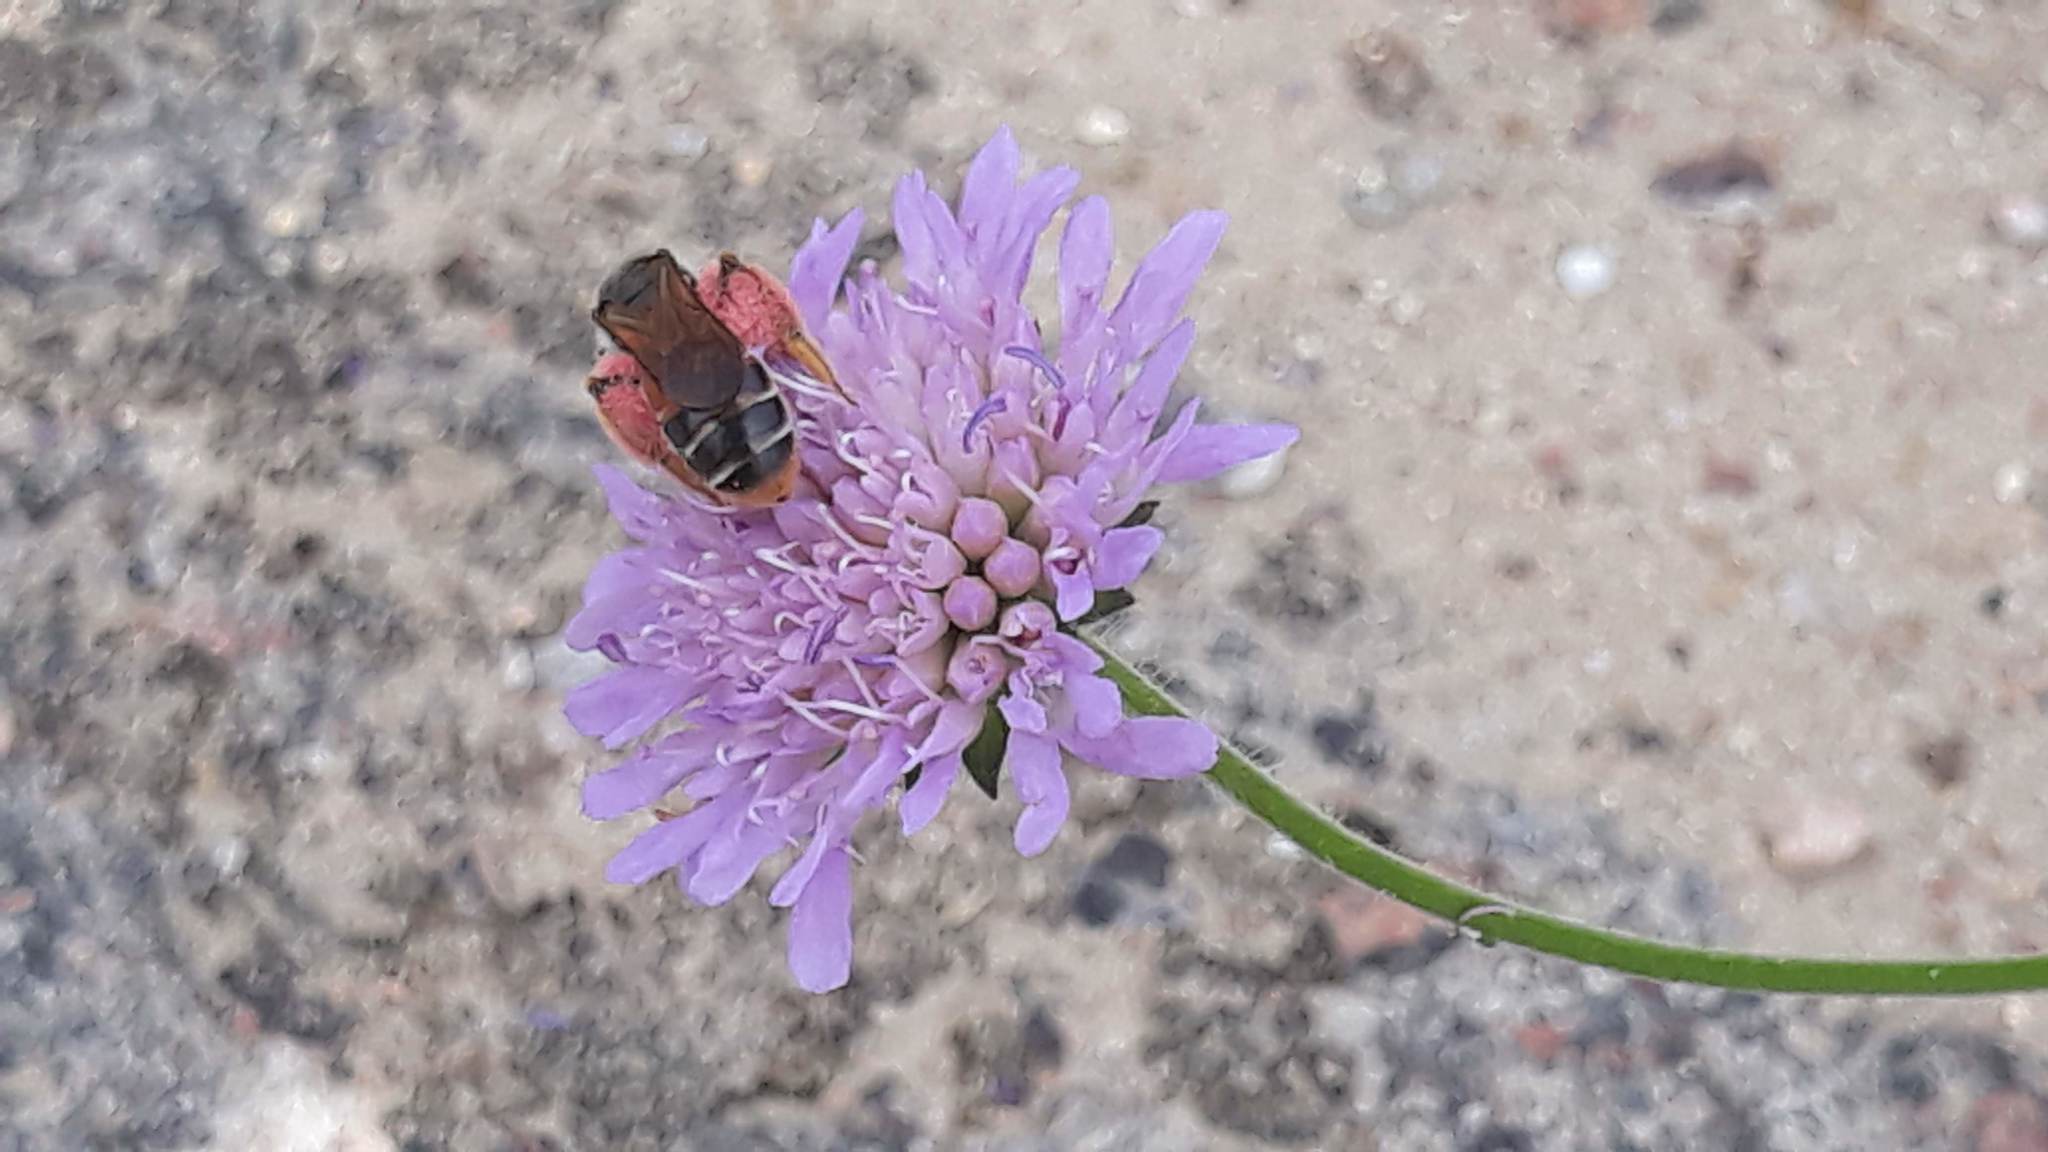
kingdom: Animalia
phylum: Arthropoda
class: Insecta
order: Hymenoptera
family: Andrenidae
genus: Andrena
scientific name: Andrena hattorfiana
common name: Large scabious mining bee
